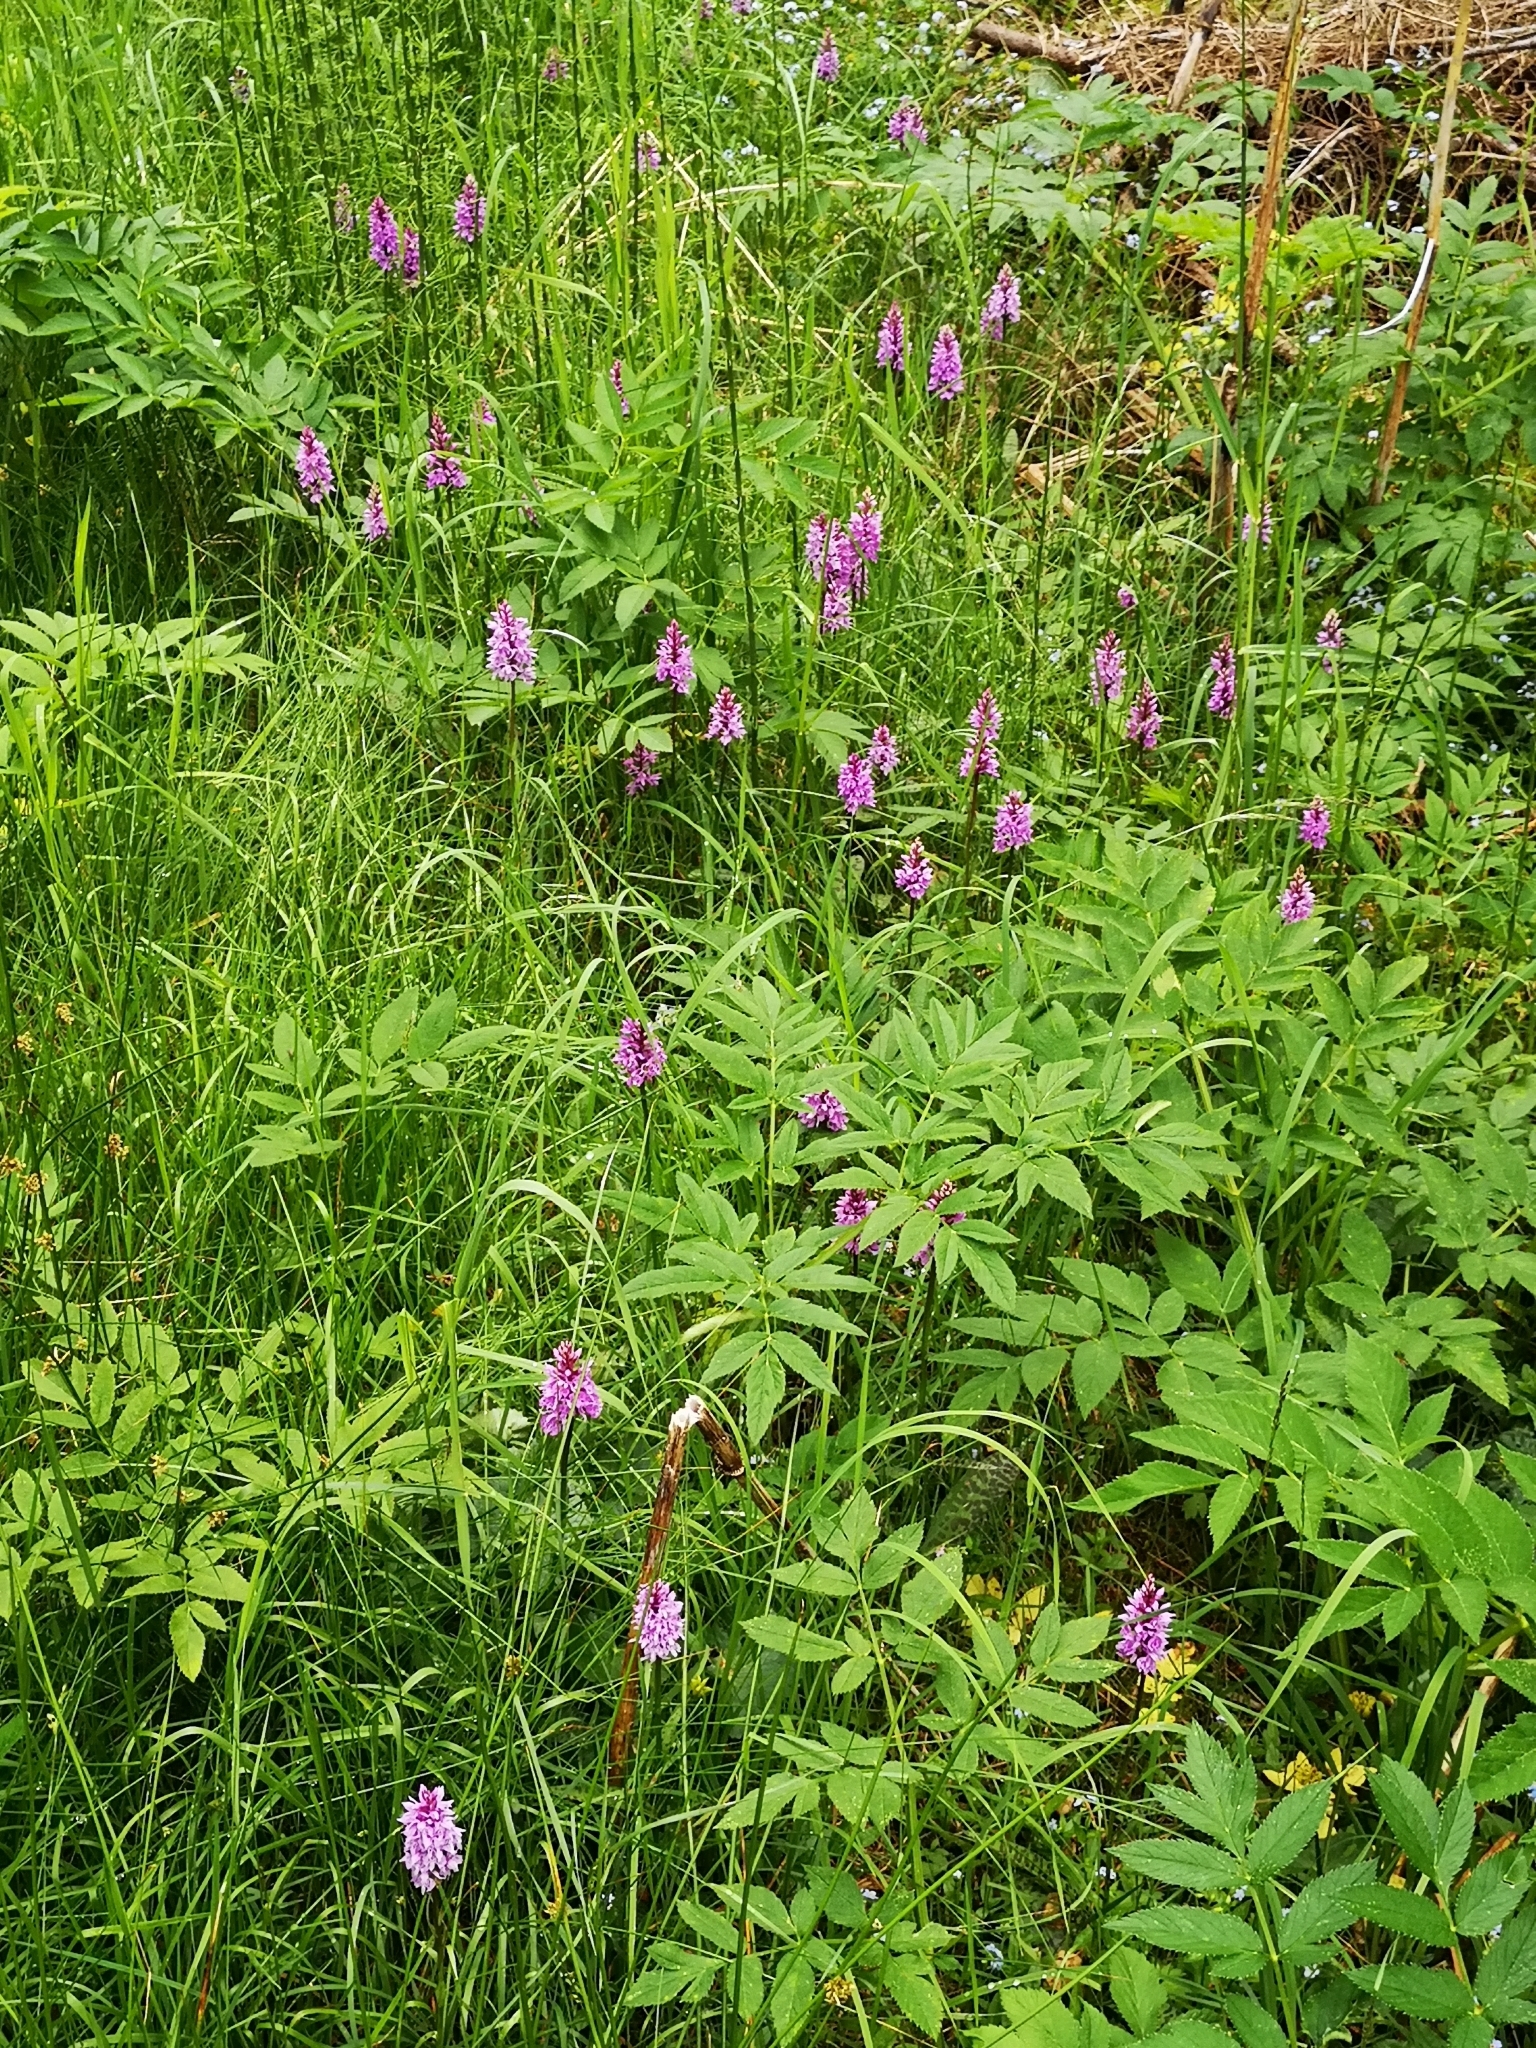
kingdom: Plantae
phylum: Tracheophyta
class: Liliopsida
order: Asparagales
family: Orchidaceae
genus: Dactylorhiza
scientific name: Dactylorhiza maculata
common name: Heath spotted-orchid
